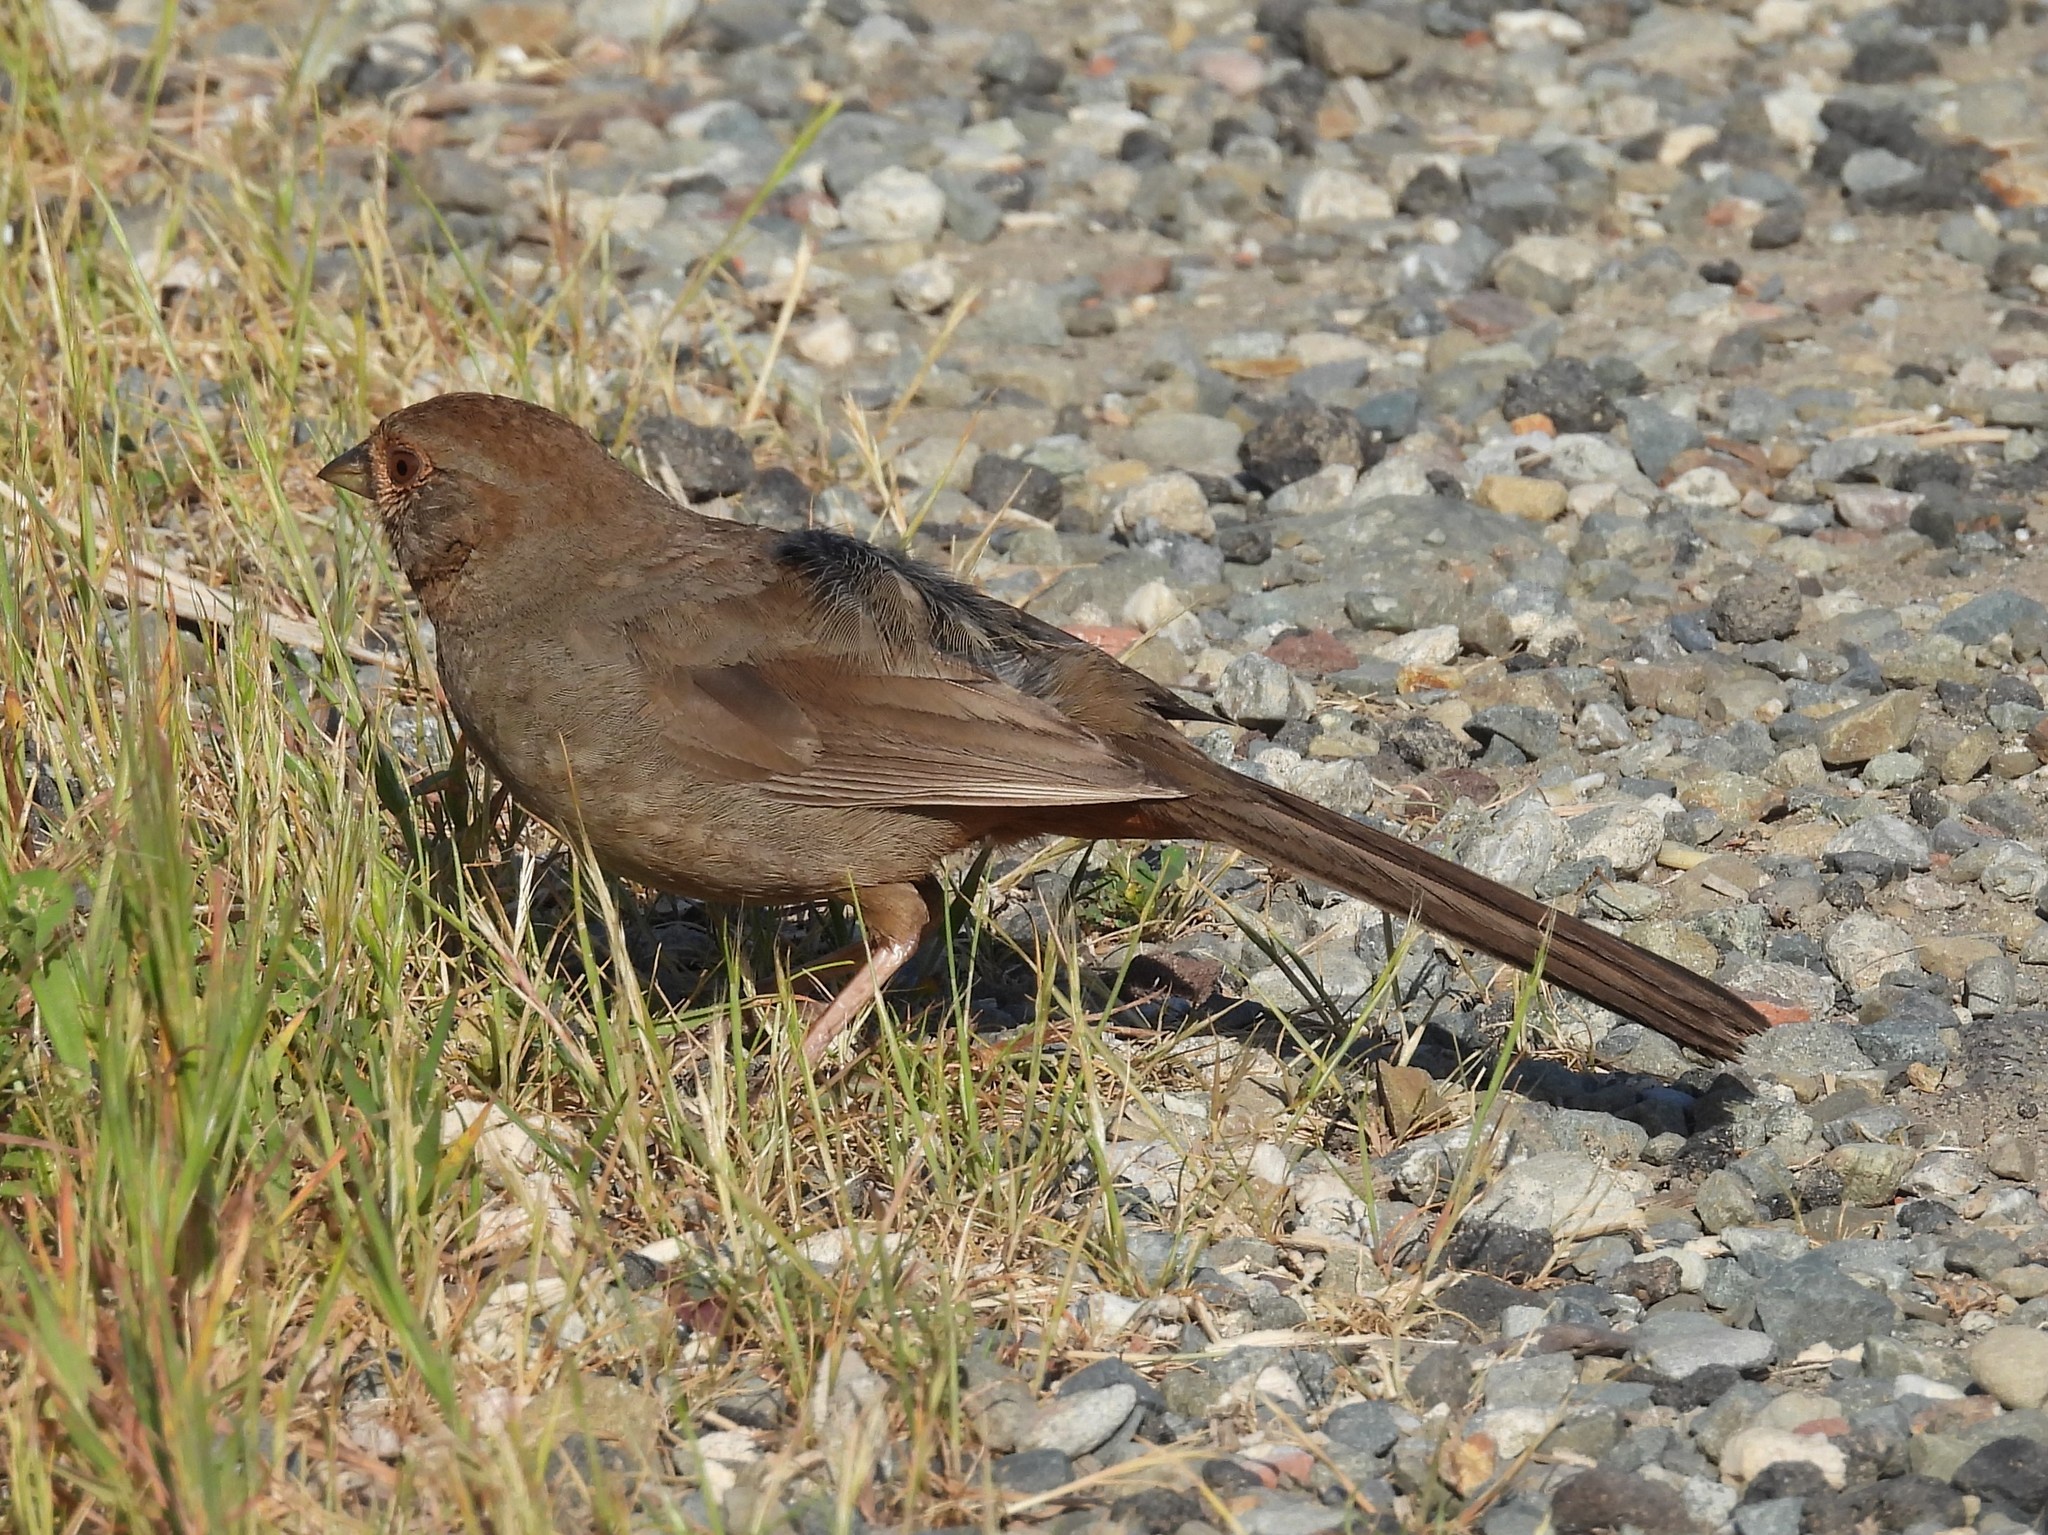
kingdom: Animalia
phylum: Chordata
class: Aves
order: Passeriformes
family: Passerellidae
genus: Melozone
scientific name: Melozone crissalis
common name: California towhee
